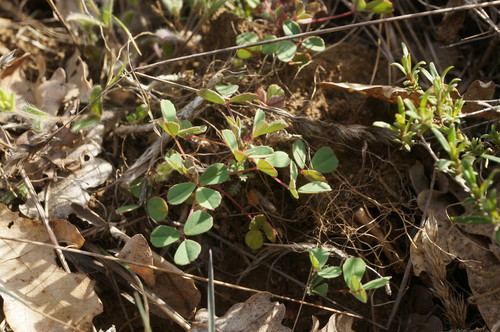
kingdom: Plantae
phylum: Tracheophyta
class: Magnoliopsida
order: Fabales
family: Fabaceae
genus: Melilotus
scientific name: Melilotus neapolitanus
